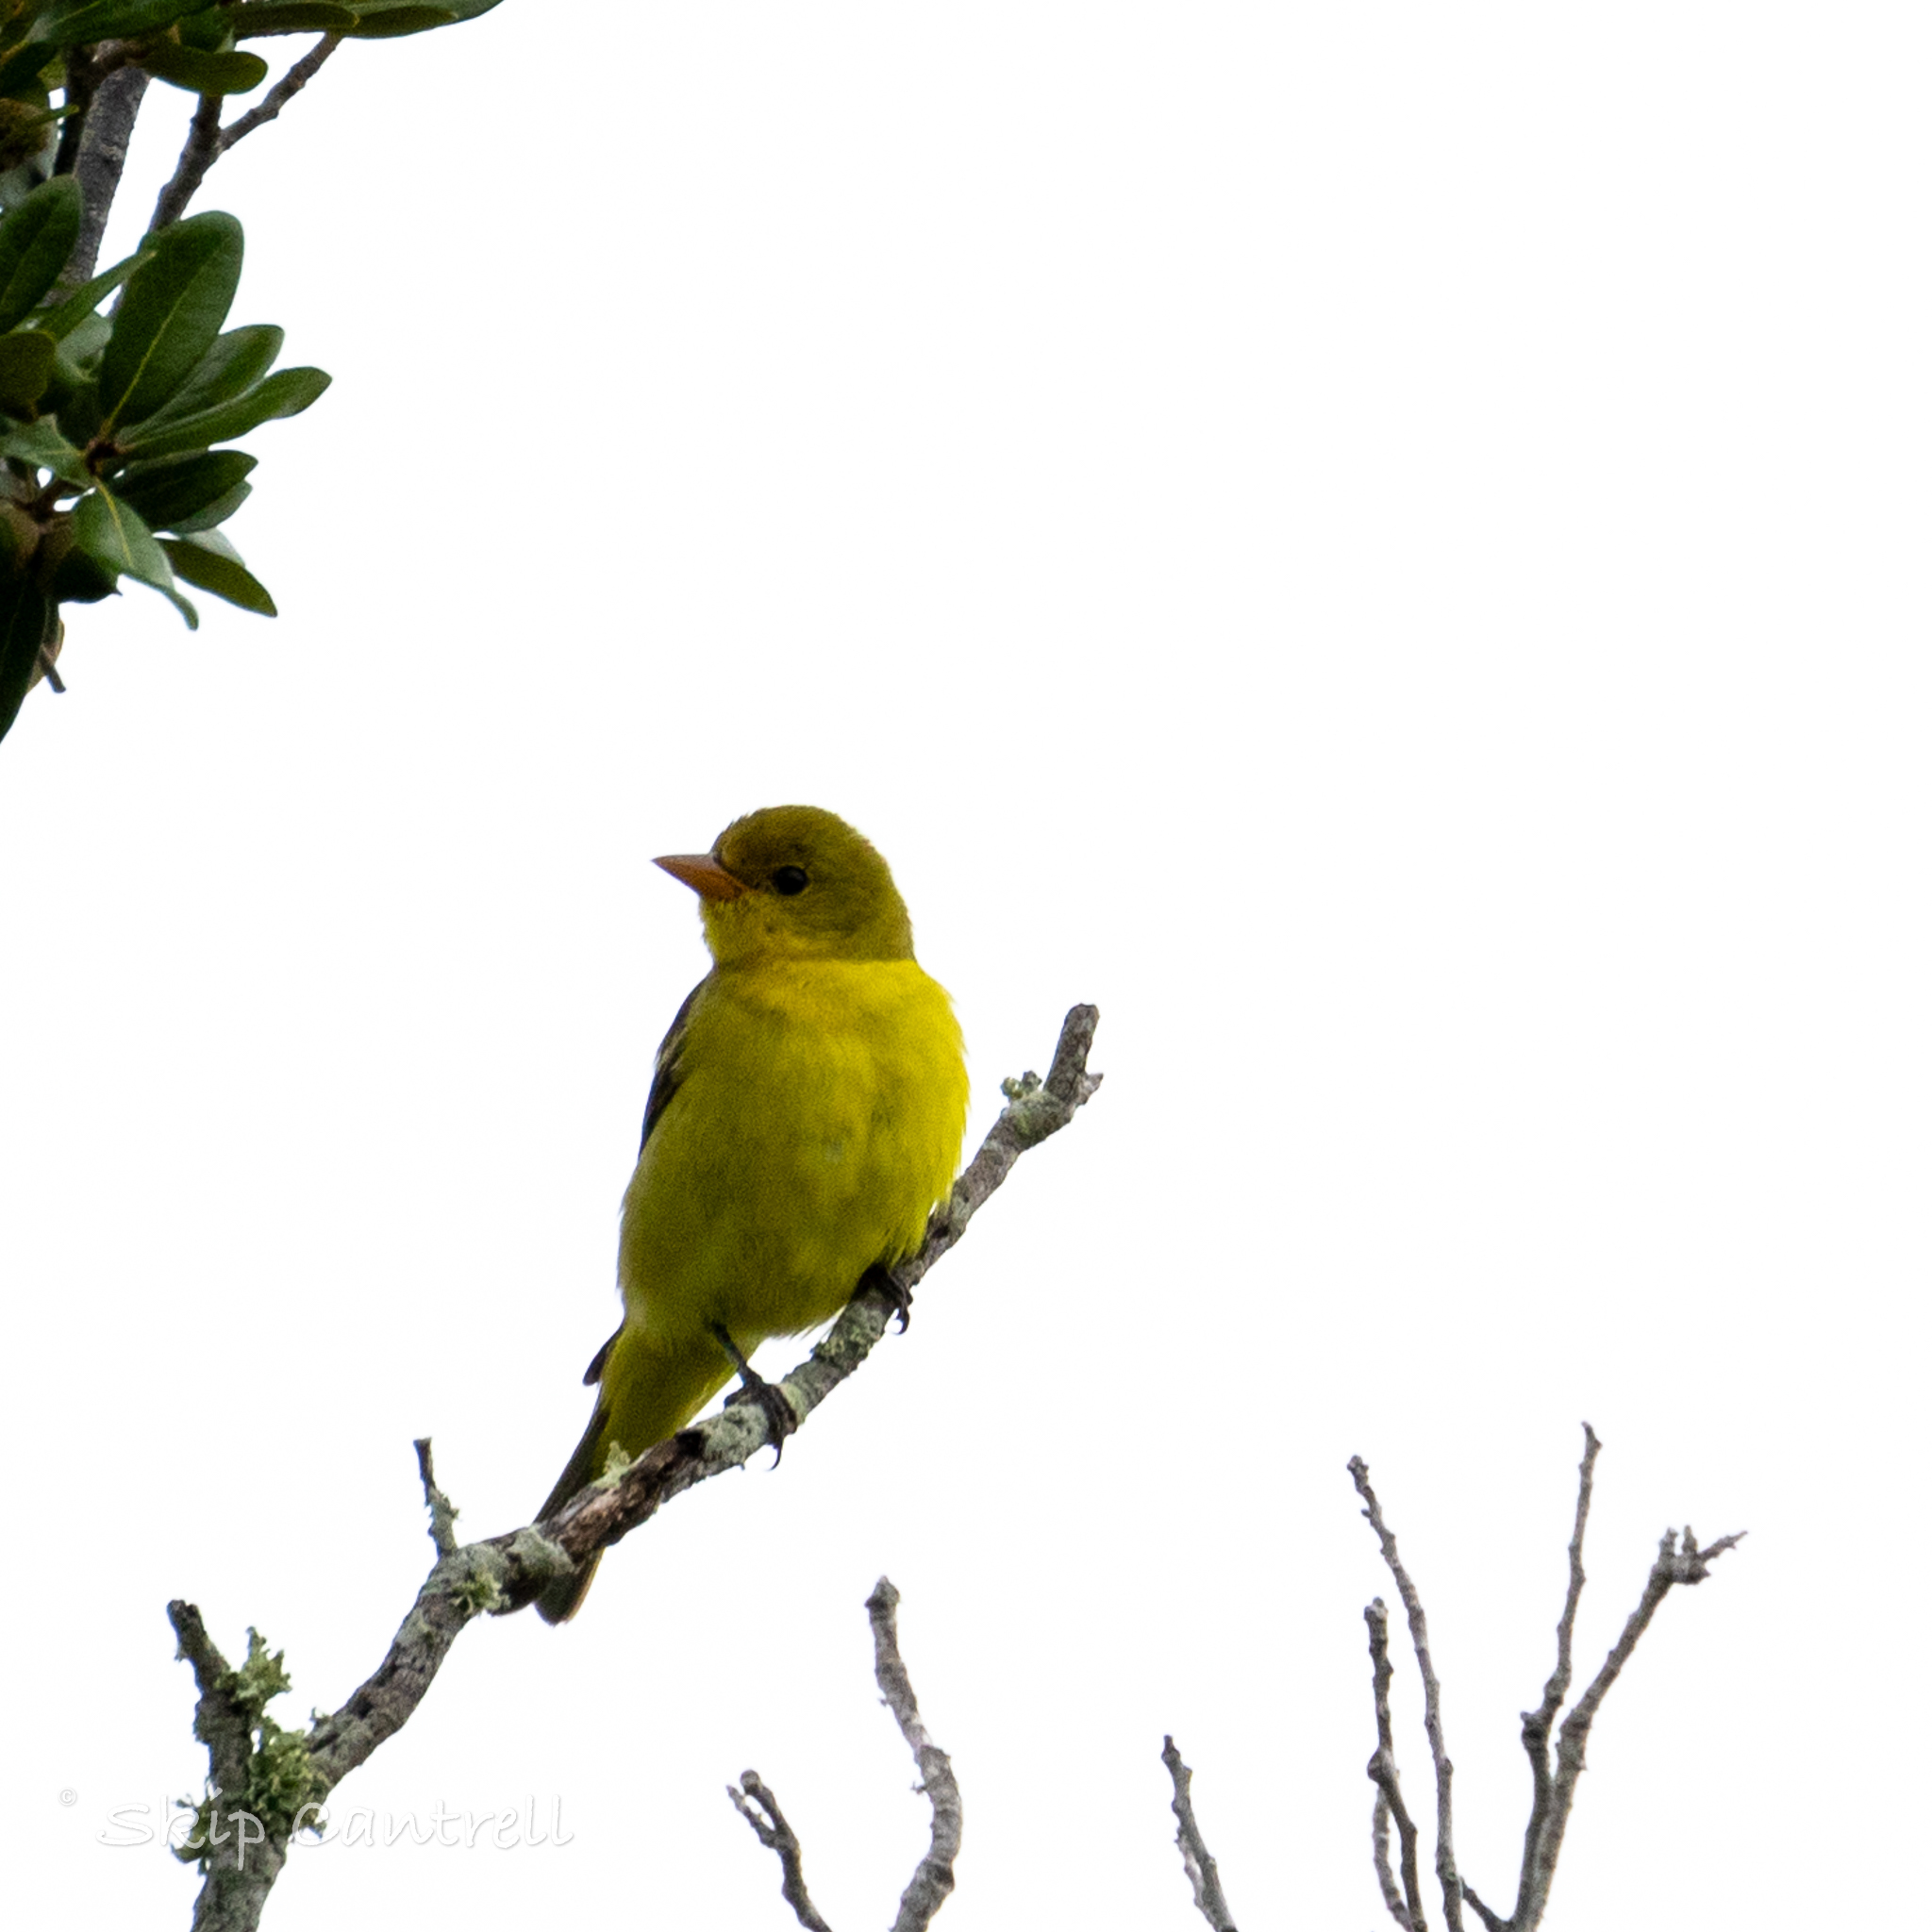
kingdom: Animalia
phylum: Chordata
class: Aves
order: Passeriformes
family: Cardinalidae
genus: Piranga
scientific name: Piranga ludoviciana
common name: Western tanager
